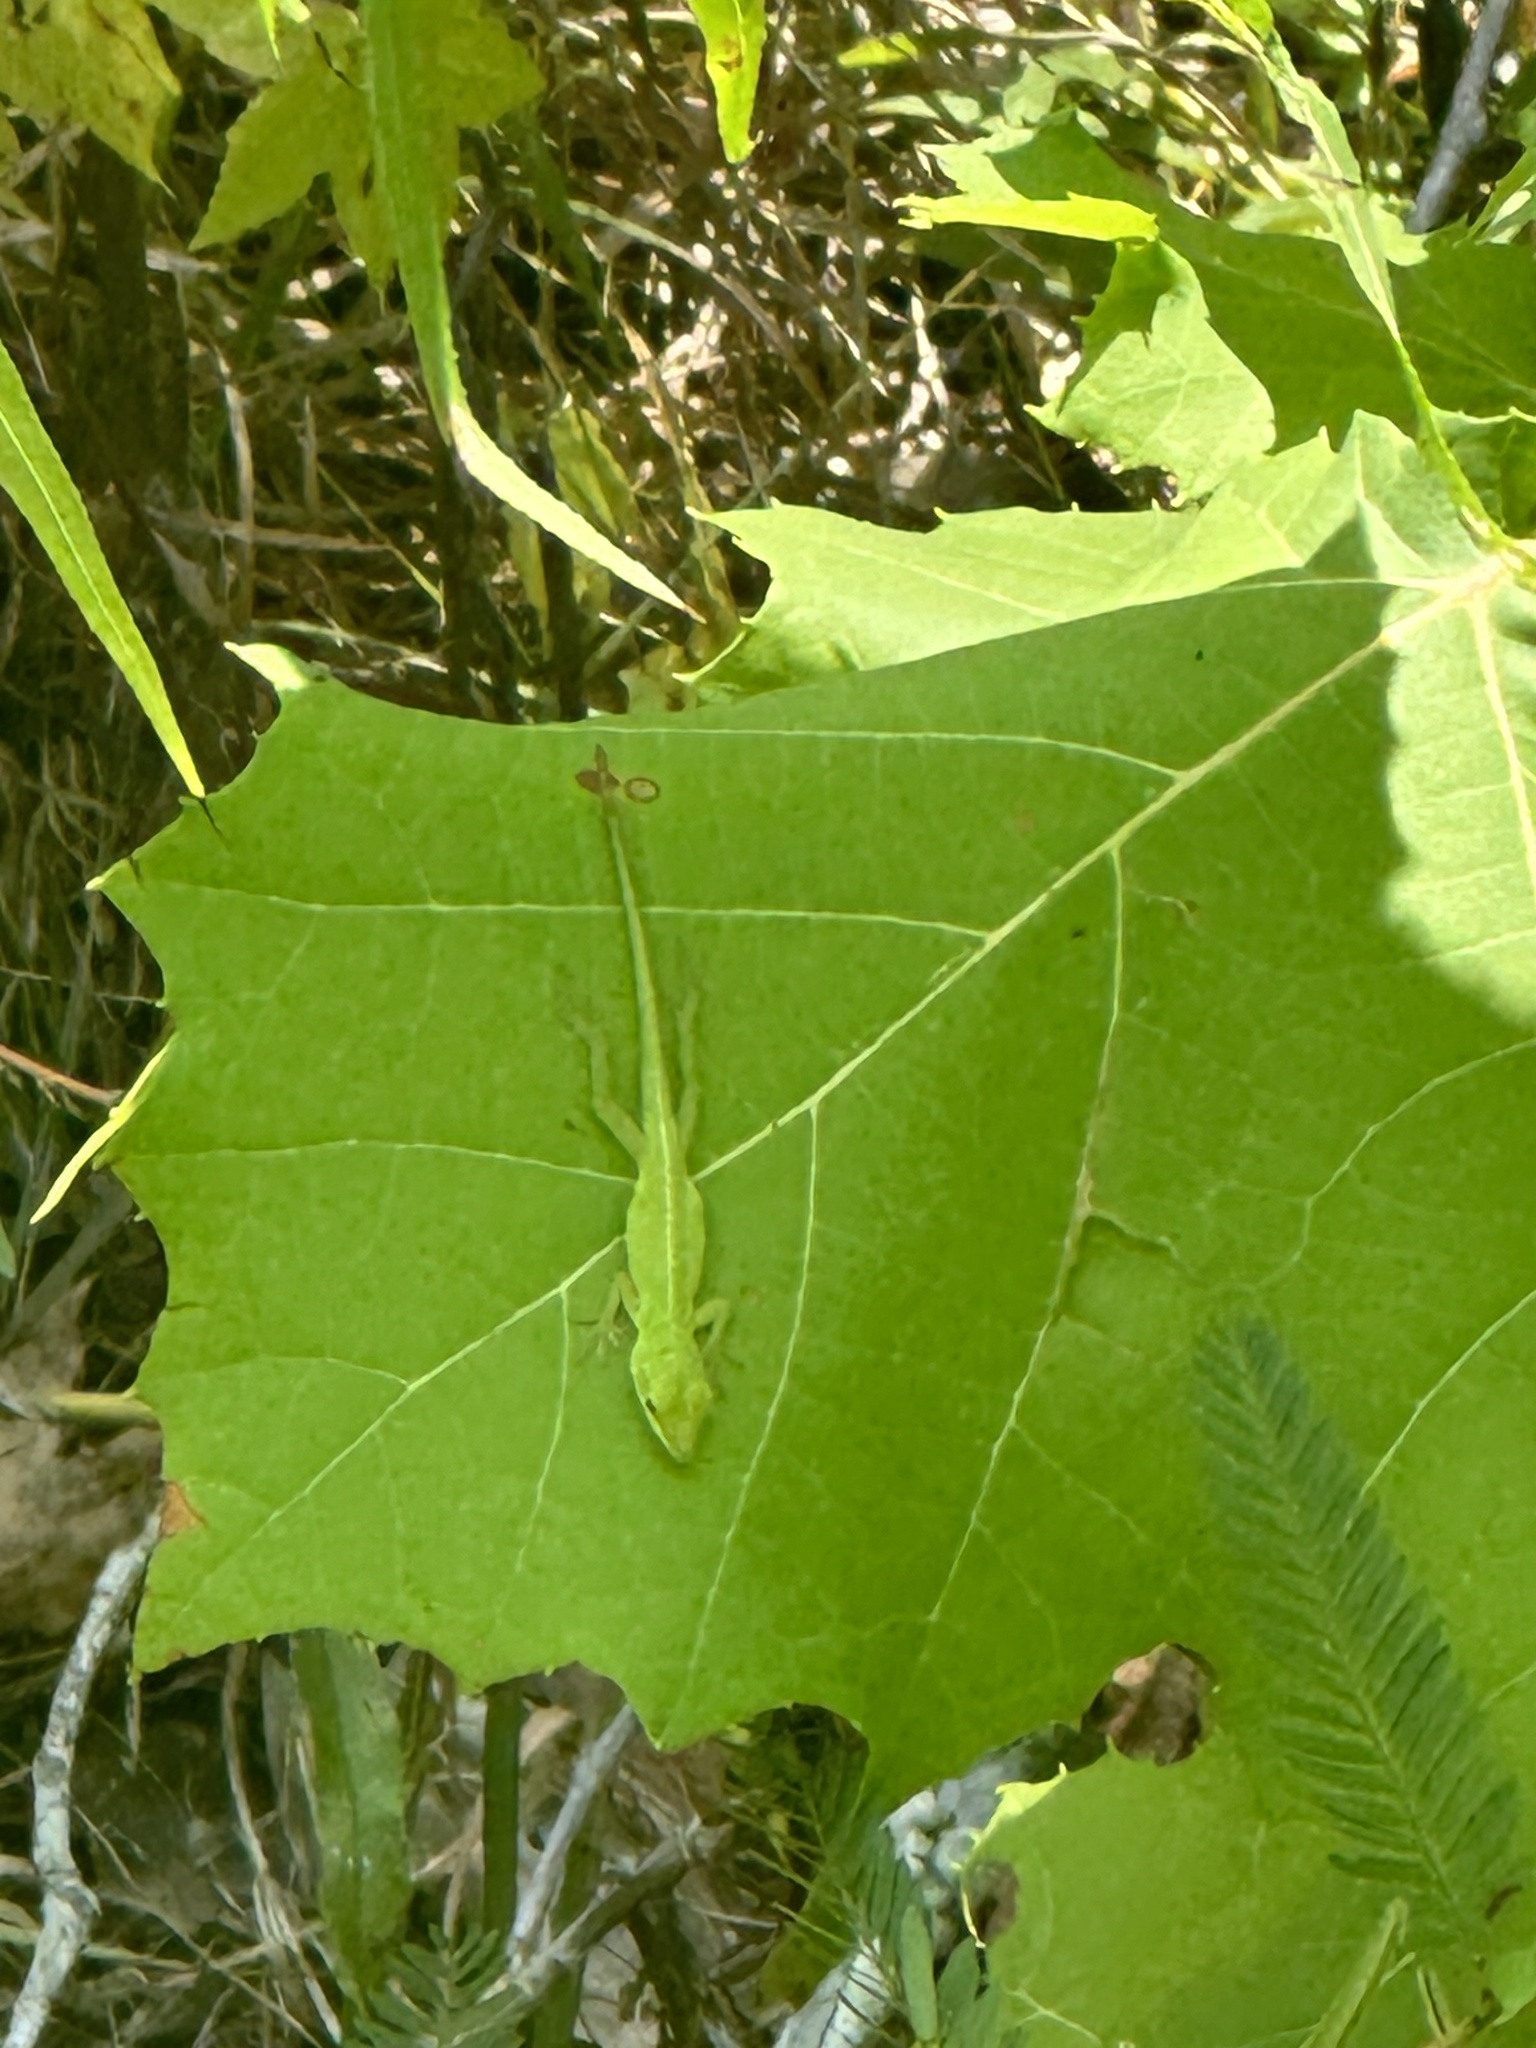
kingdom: Animalia
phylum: Chordata
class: Squamata
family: Dactyloidae
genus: Anolis
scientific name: Anolis carolinensis
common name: Green anole
